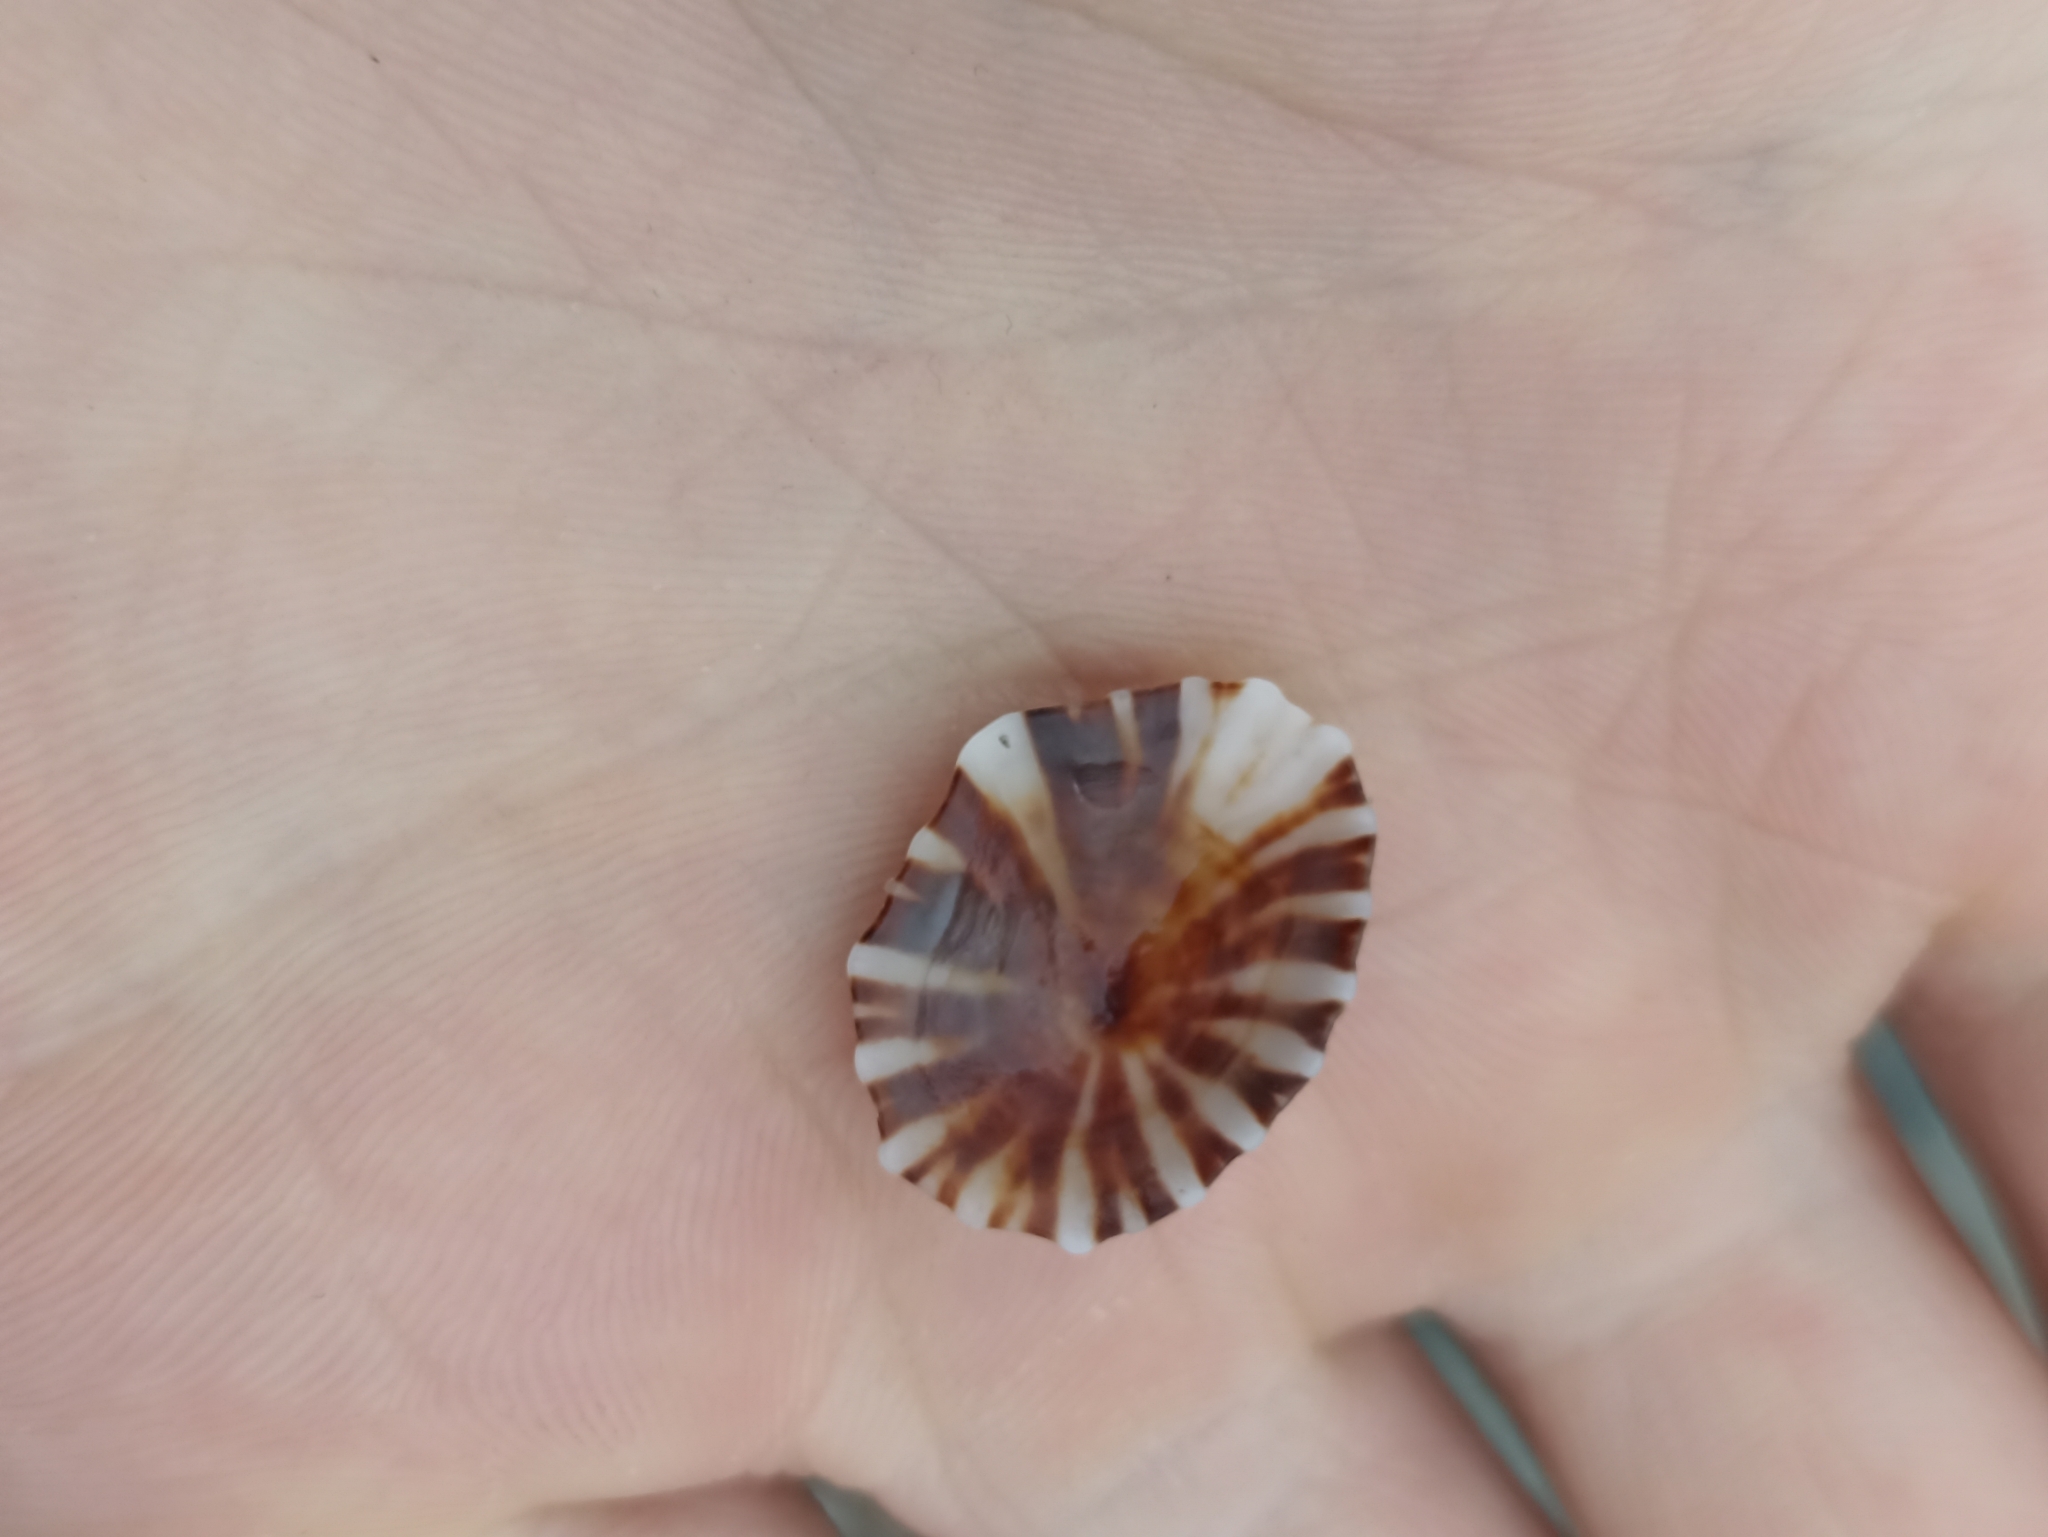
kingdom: Animalia
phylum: Mollusca
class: Gastropoda
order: Siphonariida
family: Siphonariidae
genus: Siphonaria
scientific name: Siphonaria denticulata
